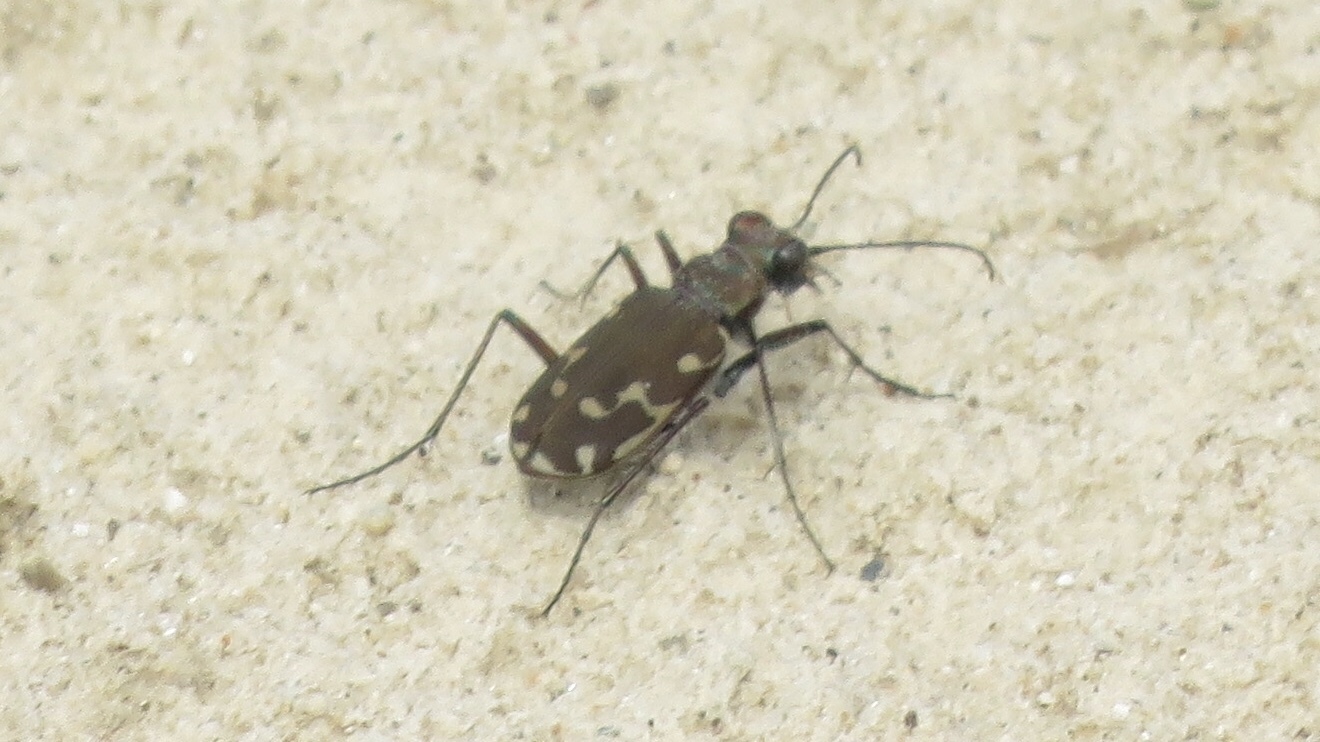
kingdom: Animalia
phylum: Arthropoda
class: Insecta
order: Coleoptera
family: Carabidae
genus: Cicindela
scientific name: Cicindela repanda
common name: Bronzed tiger beetle
